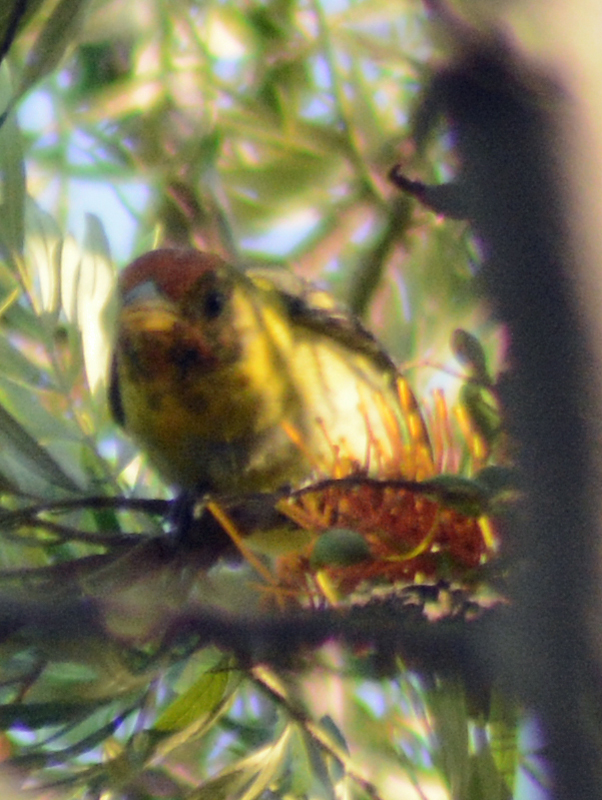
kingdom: Animalia
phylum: Chordata
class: Aves
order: Passeriformes
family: Cardinalidae
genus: Piranga
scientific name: Piranga ludoviciana
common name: Western tanager
